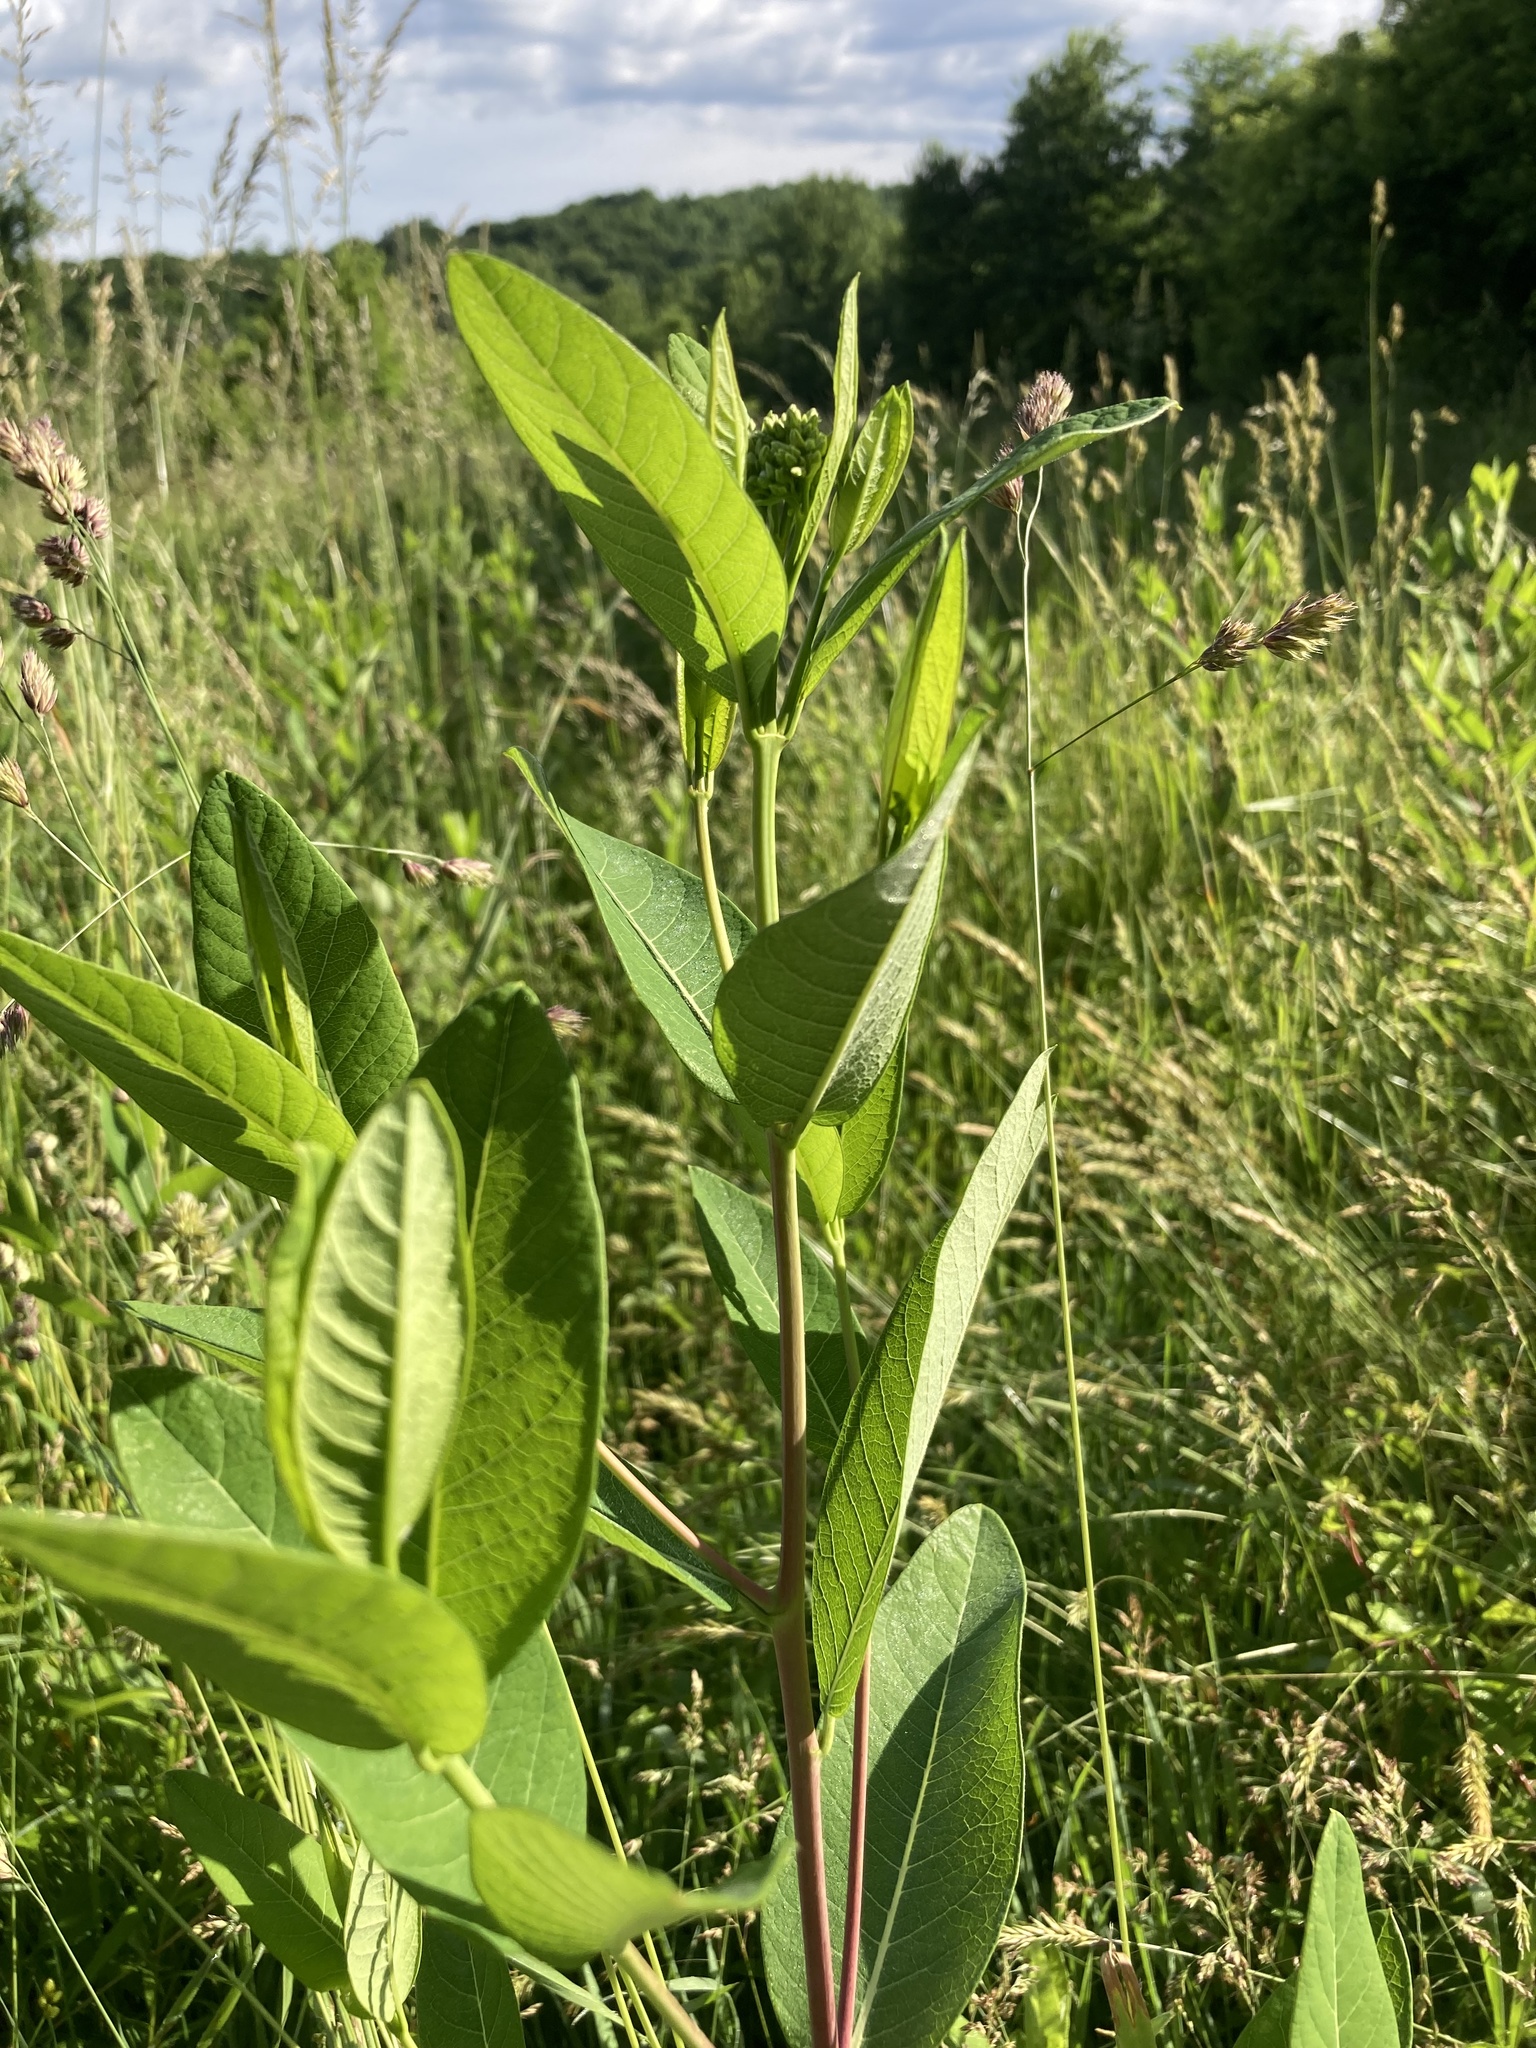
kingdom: Plantae
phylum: Tracheophyta
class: Magnoliopsida
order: Gentianales
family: Apocynaceae
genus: Apocynum
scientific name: Apocynum cannabinum
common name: Hemp dogbane
